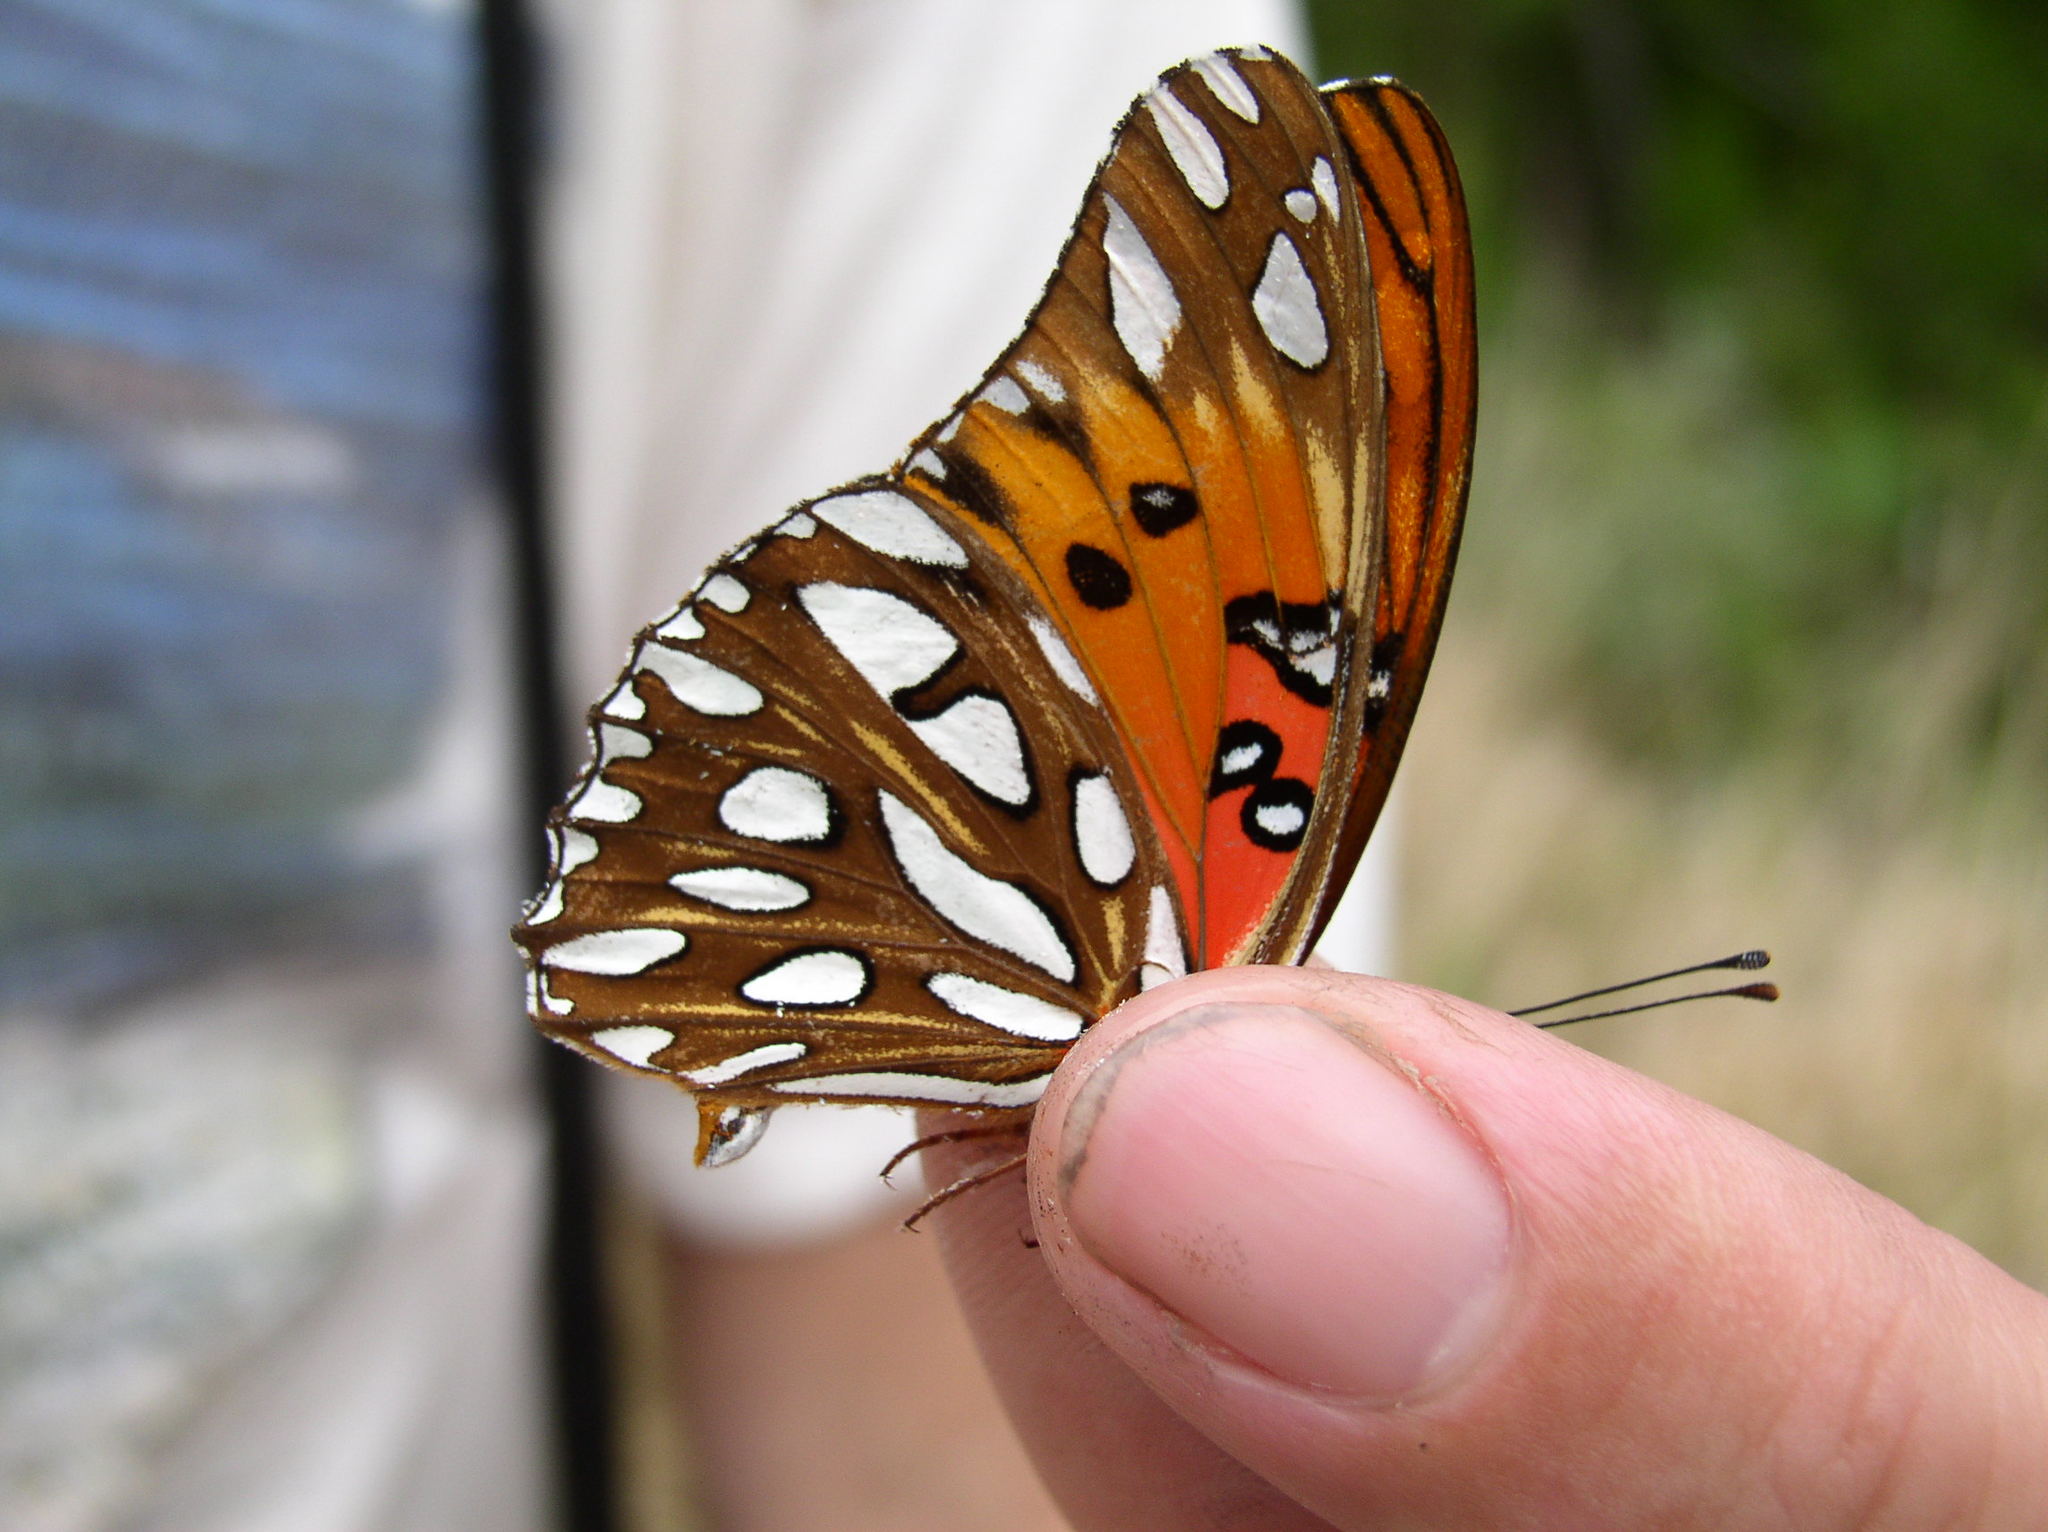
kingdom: Animalia
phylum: Arthropoda
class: Insecta
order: Lepidoptera
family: Nymphalidae
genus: Dione
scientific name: Dione vanillae
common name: Gulf fritillary
